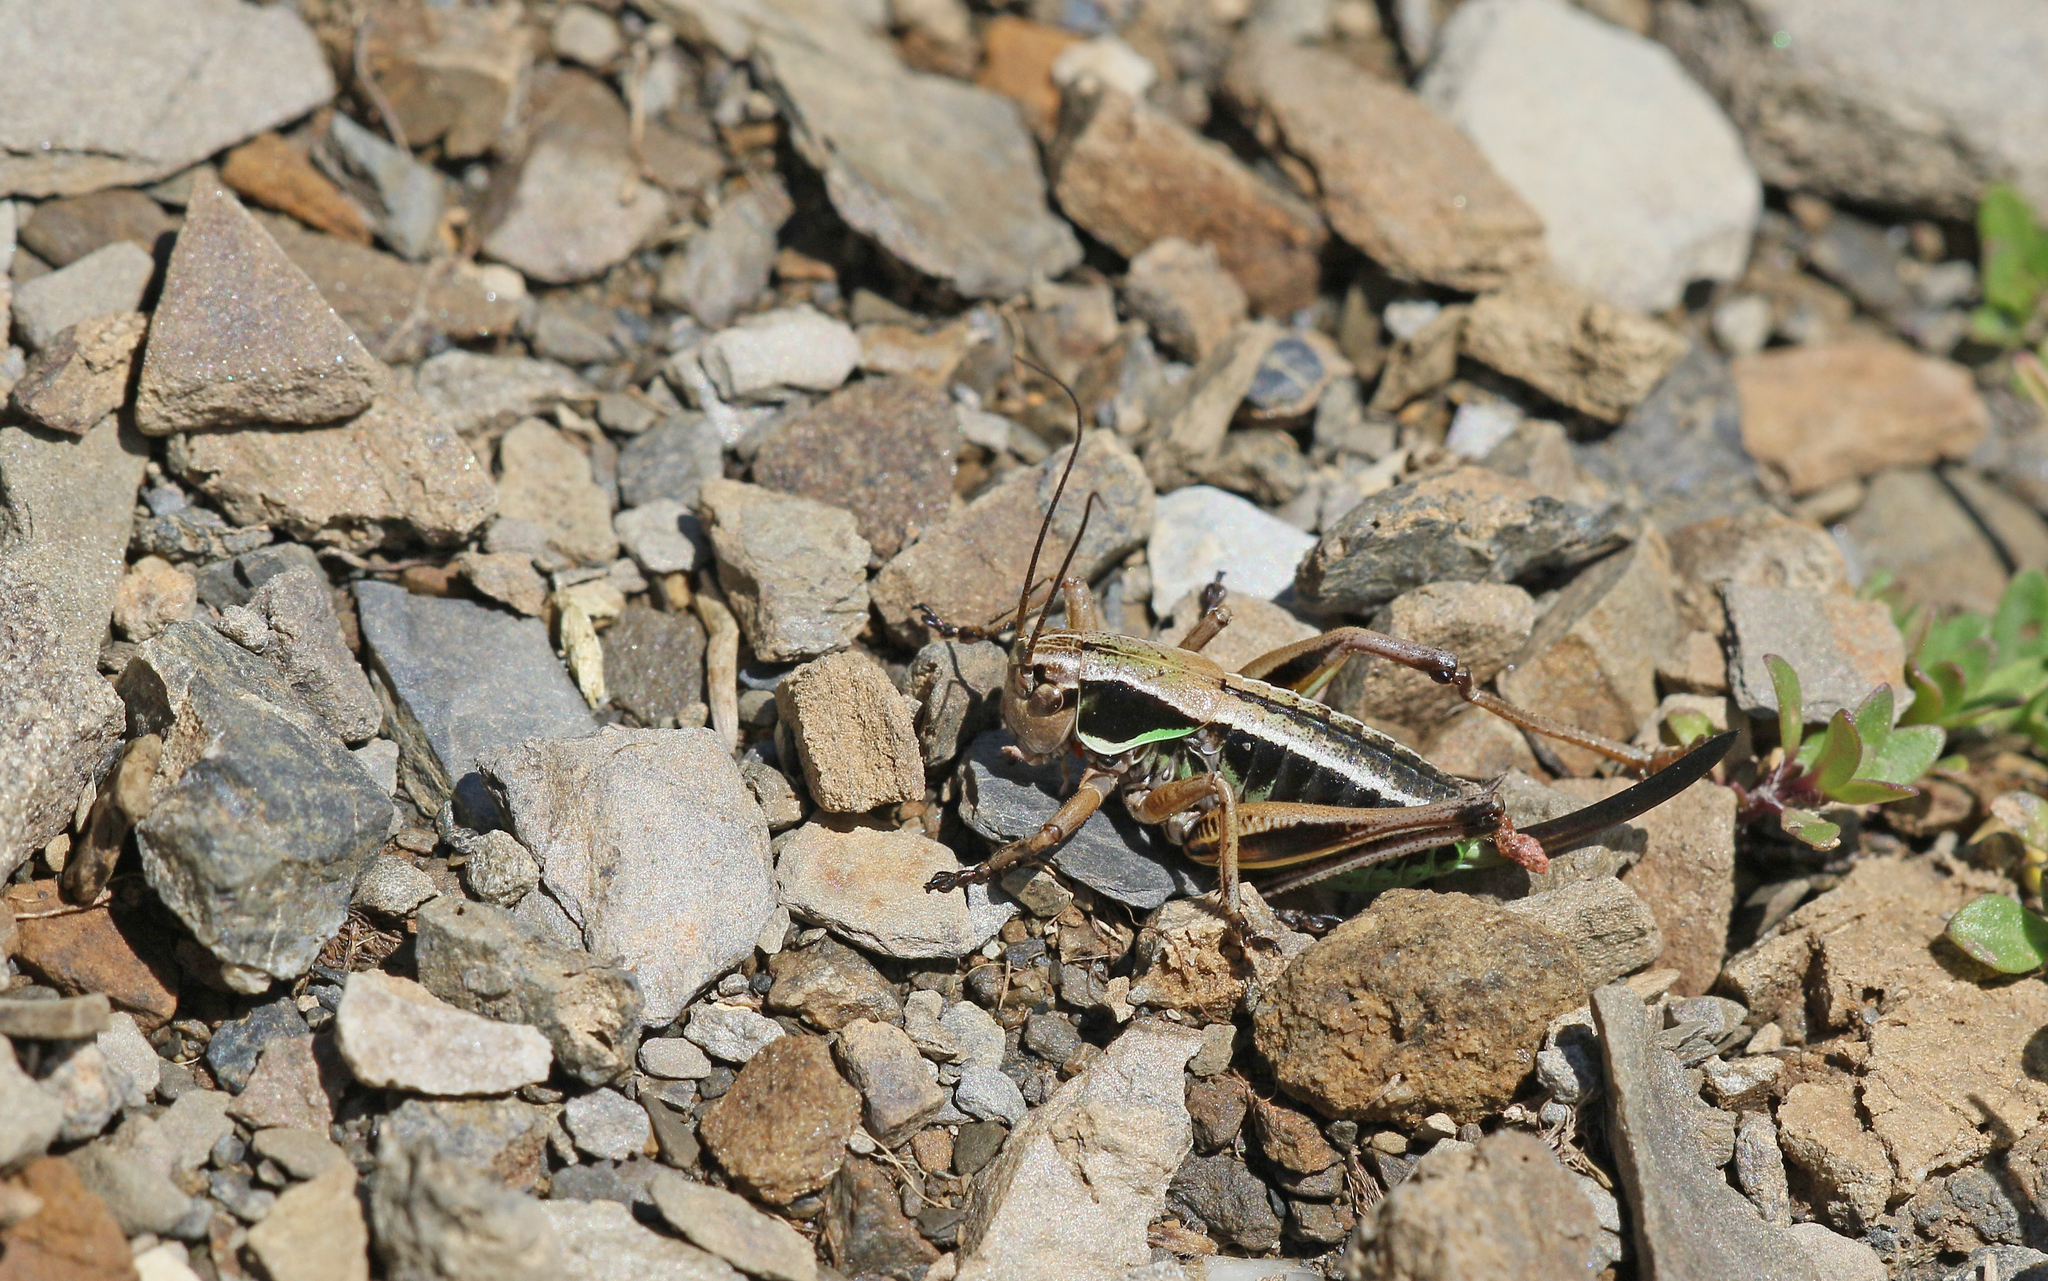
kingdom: Animalia
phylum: Arthropoda
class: Insecta
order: Orthoptera
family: Tettigoniidae
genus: Anonconotus
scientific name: Anonconotus occidentalis
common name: Western alpine bush-cricket
